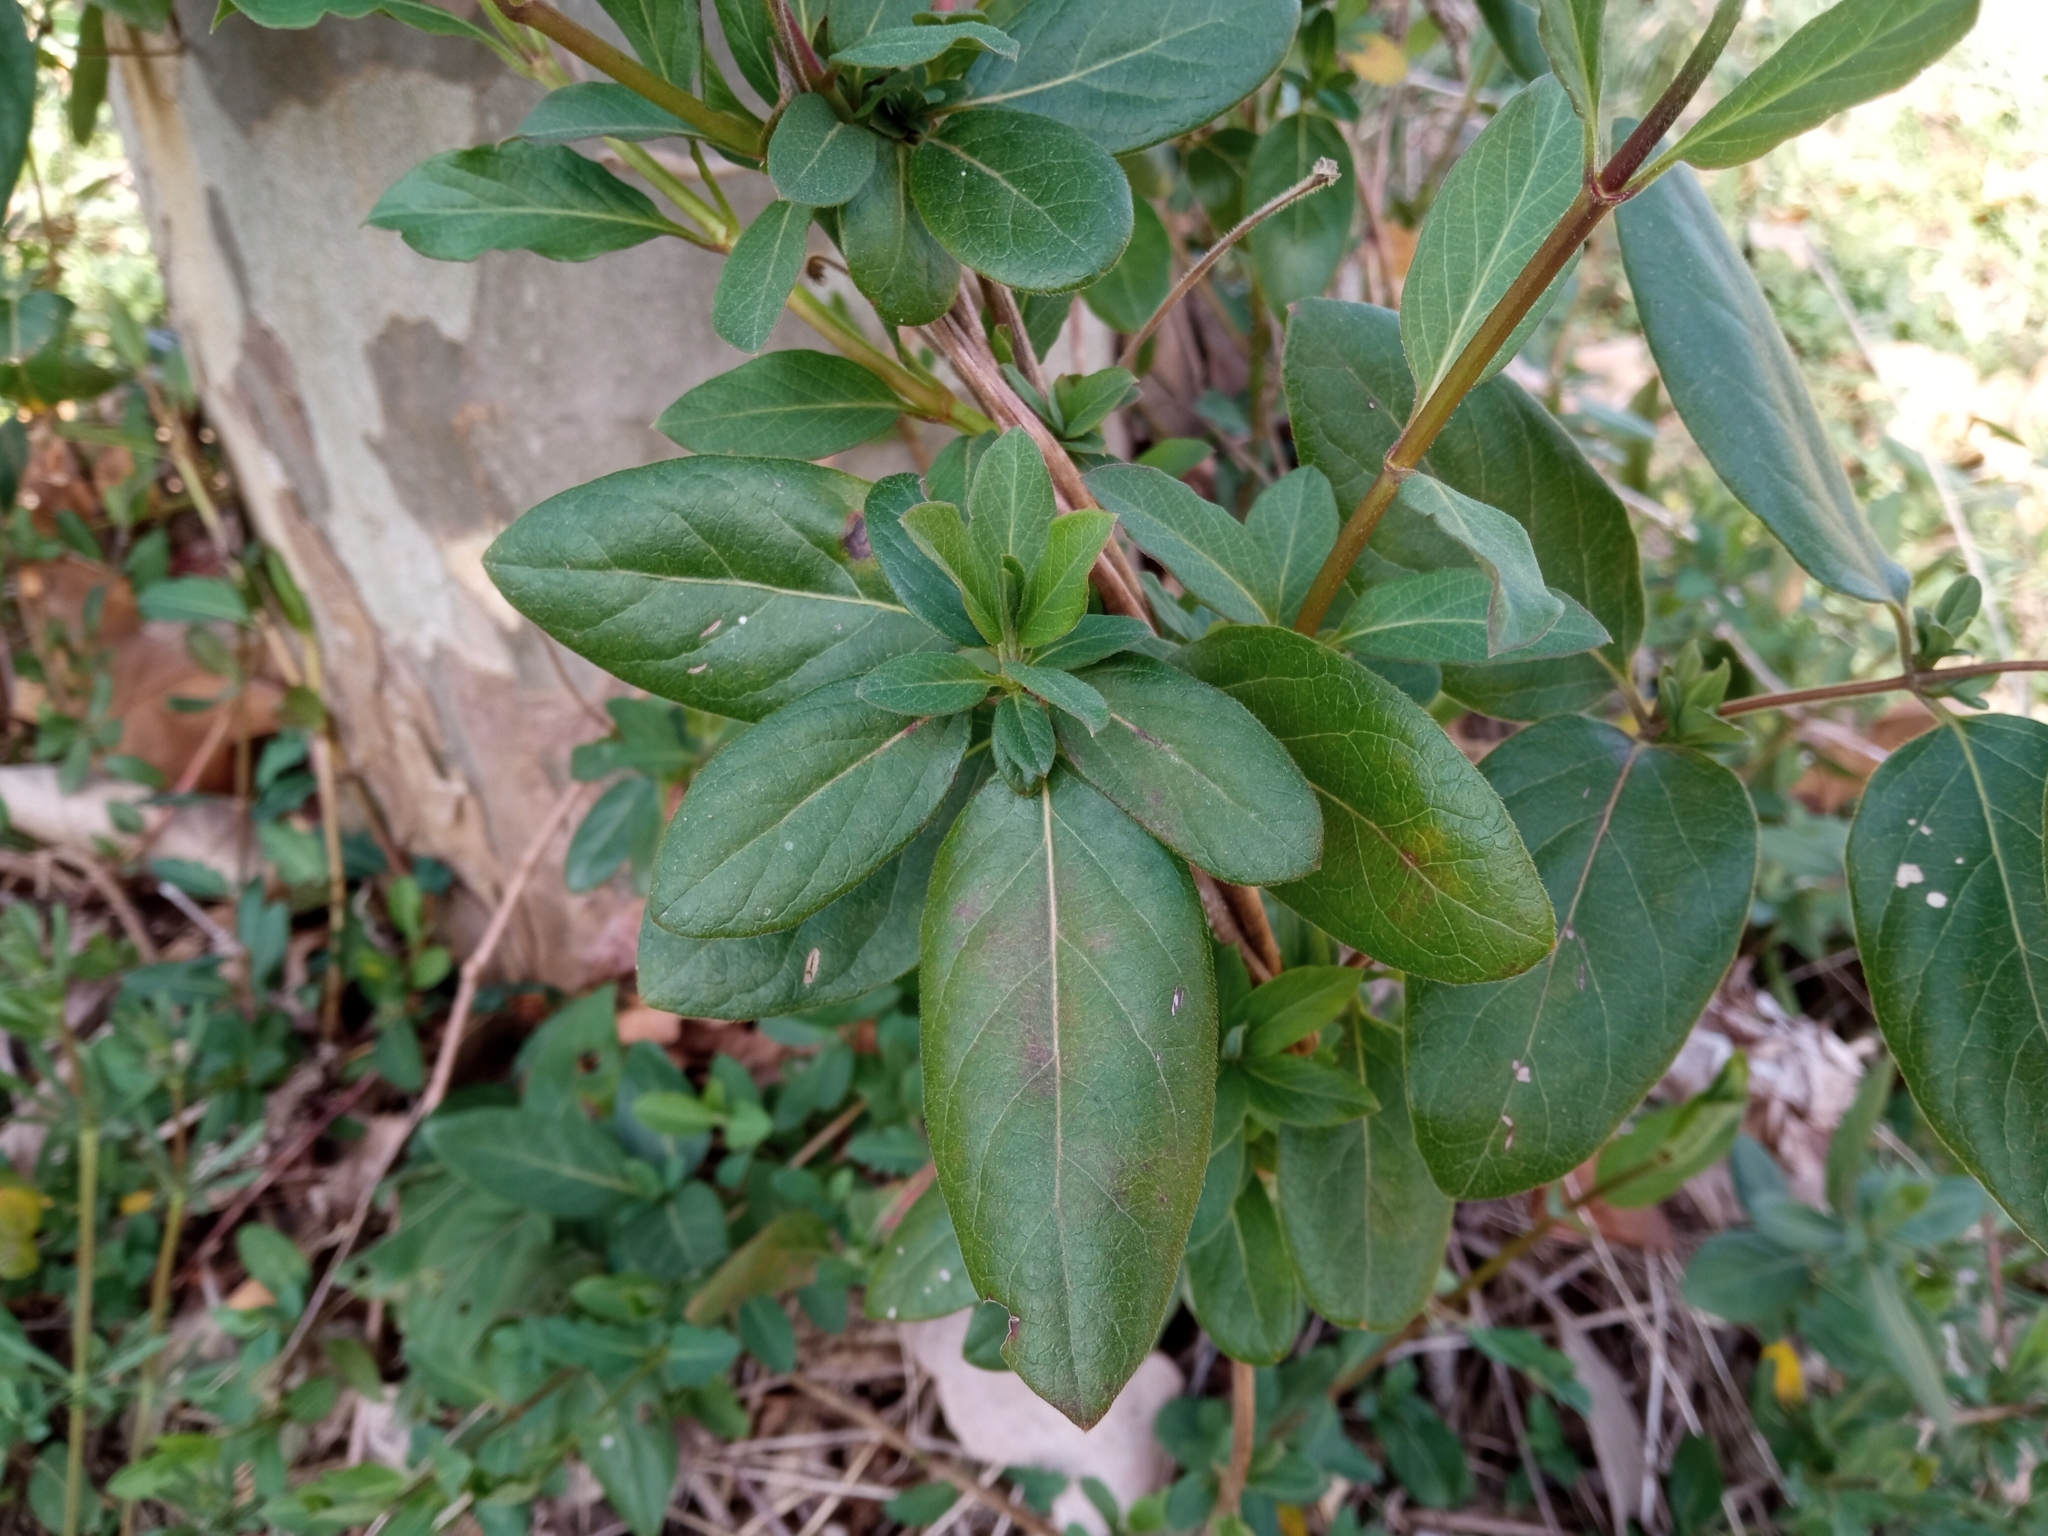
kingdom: Plantae
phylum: Tracheophyta
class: Magnoliopsida
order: Dipsacales
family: Caprifoliaceae
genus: Lonicera
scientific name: Lonicera japonica
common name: Japanese honeysuckle
